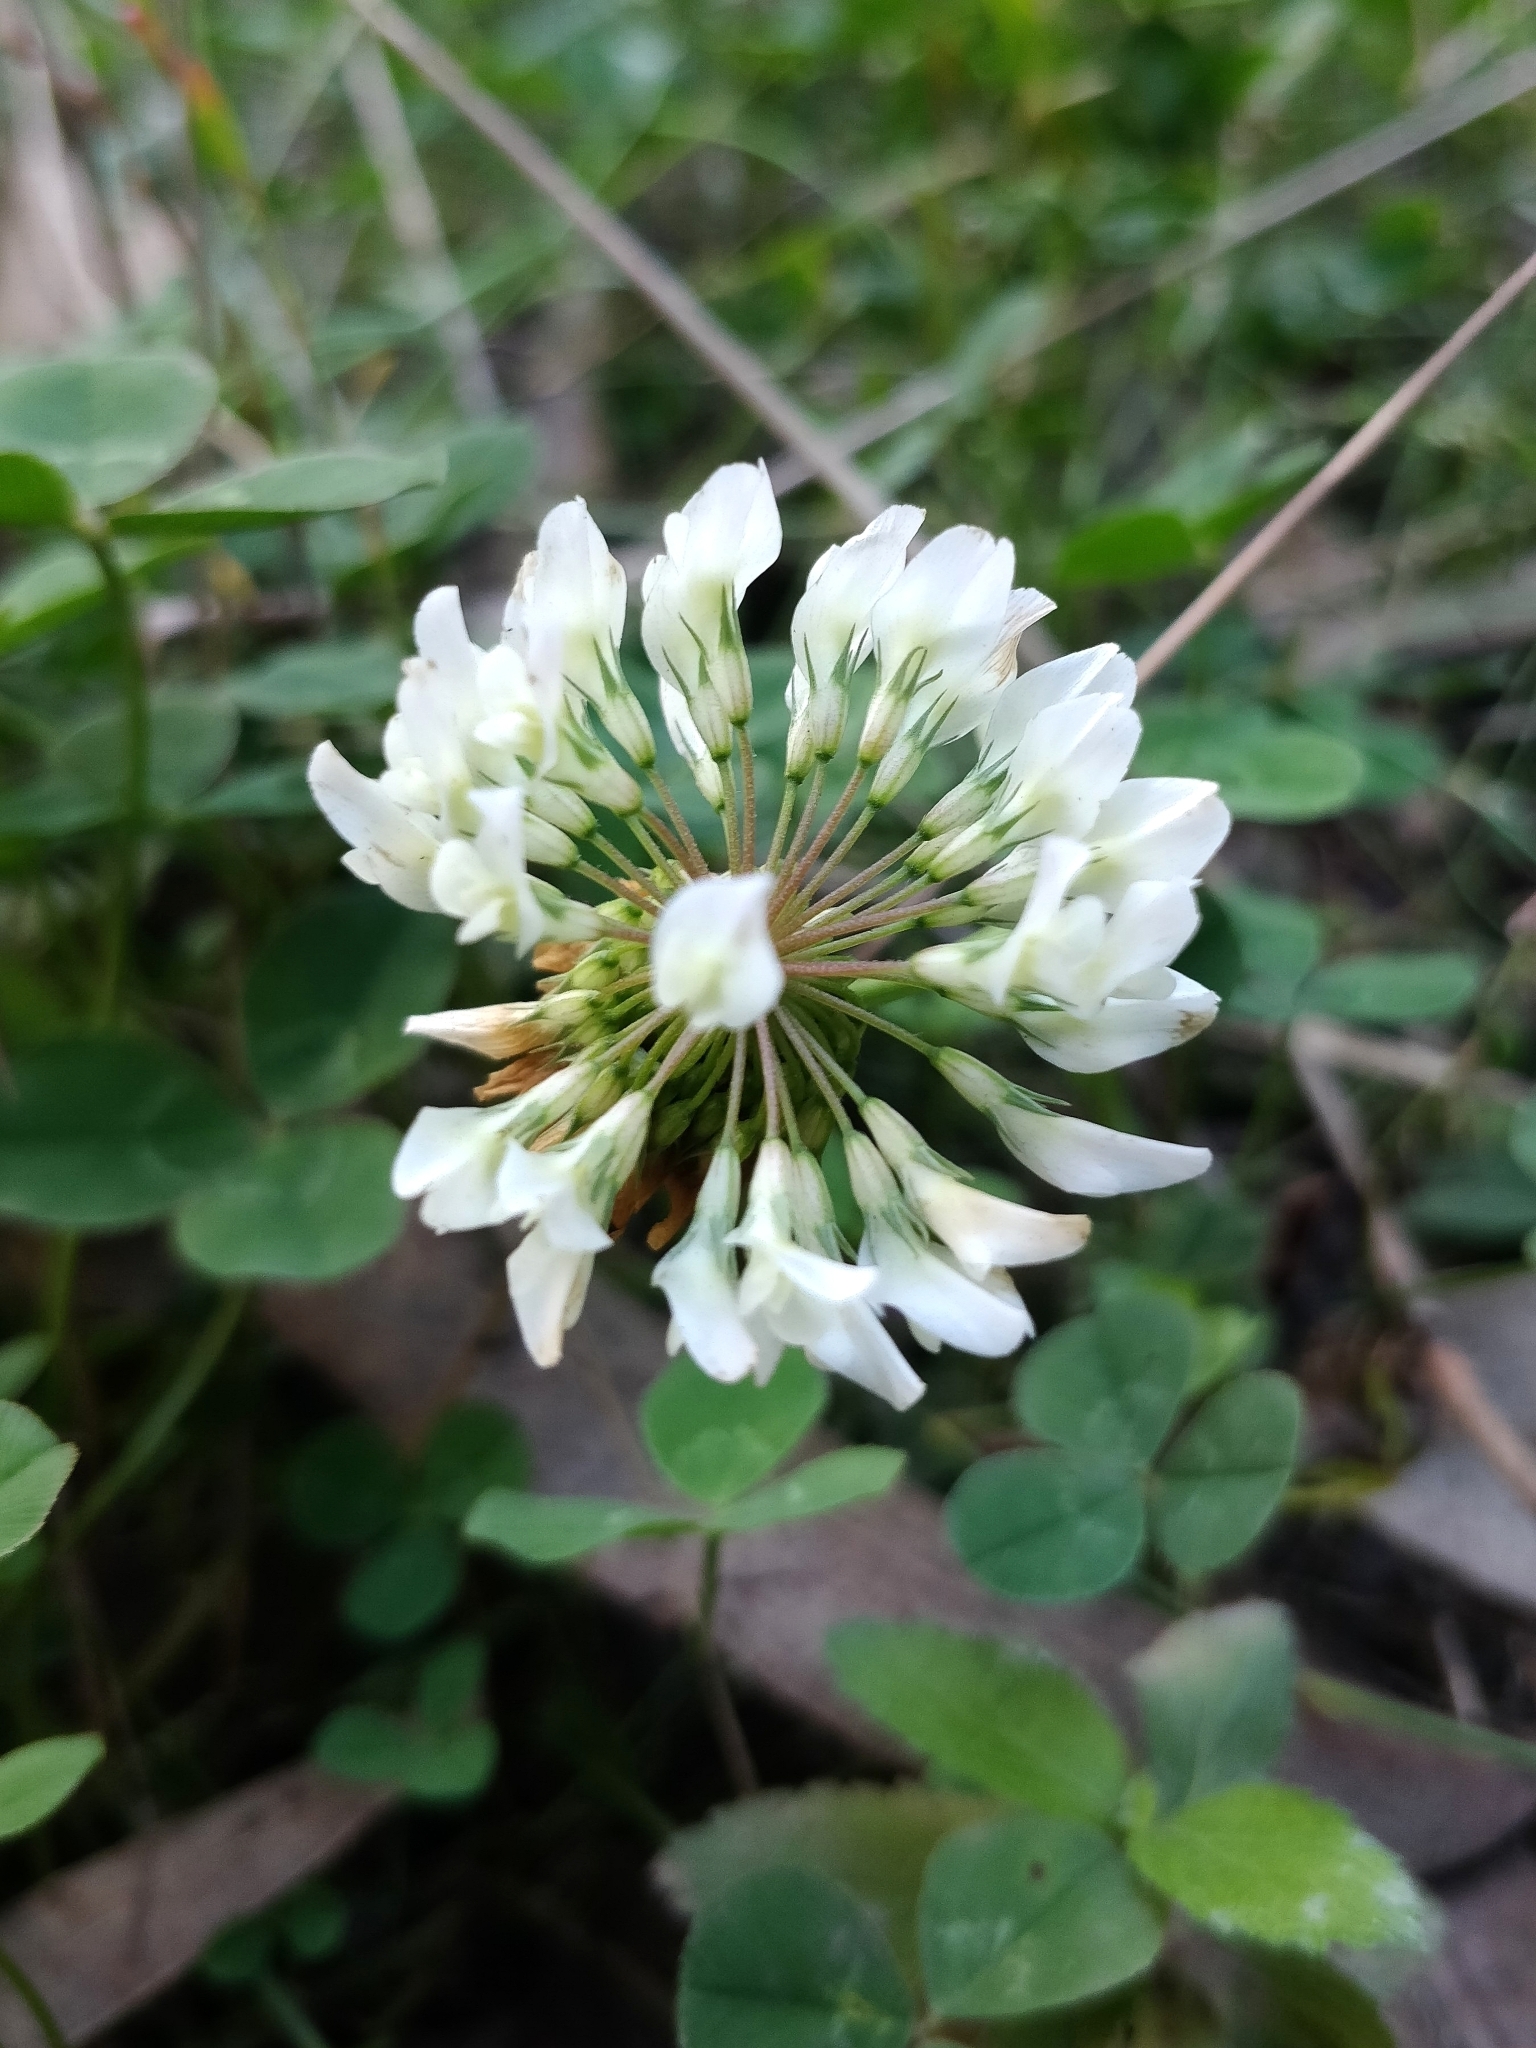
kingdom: Plantae
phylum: Tracheophyta
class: Magnoliopsida
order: Fabales
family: Fabaceae
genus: Trifolium
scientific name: Trifolium repens
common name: White clover
